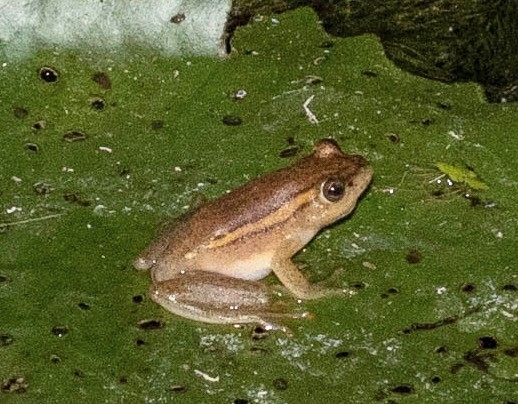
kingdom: Animalia
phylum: Chordata
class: Amphibia
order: Anura
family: Hyperoliidae
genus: Hyperolius
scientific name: Hyperolius argus
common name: Argus reed frog
